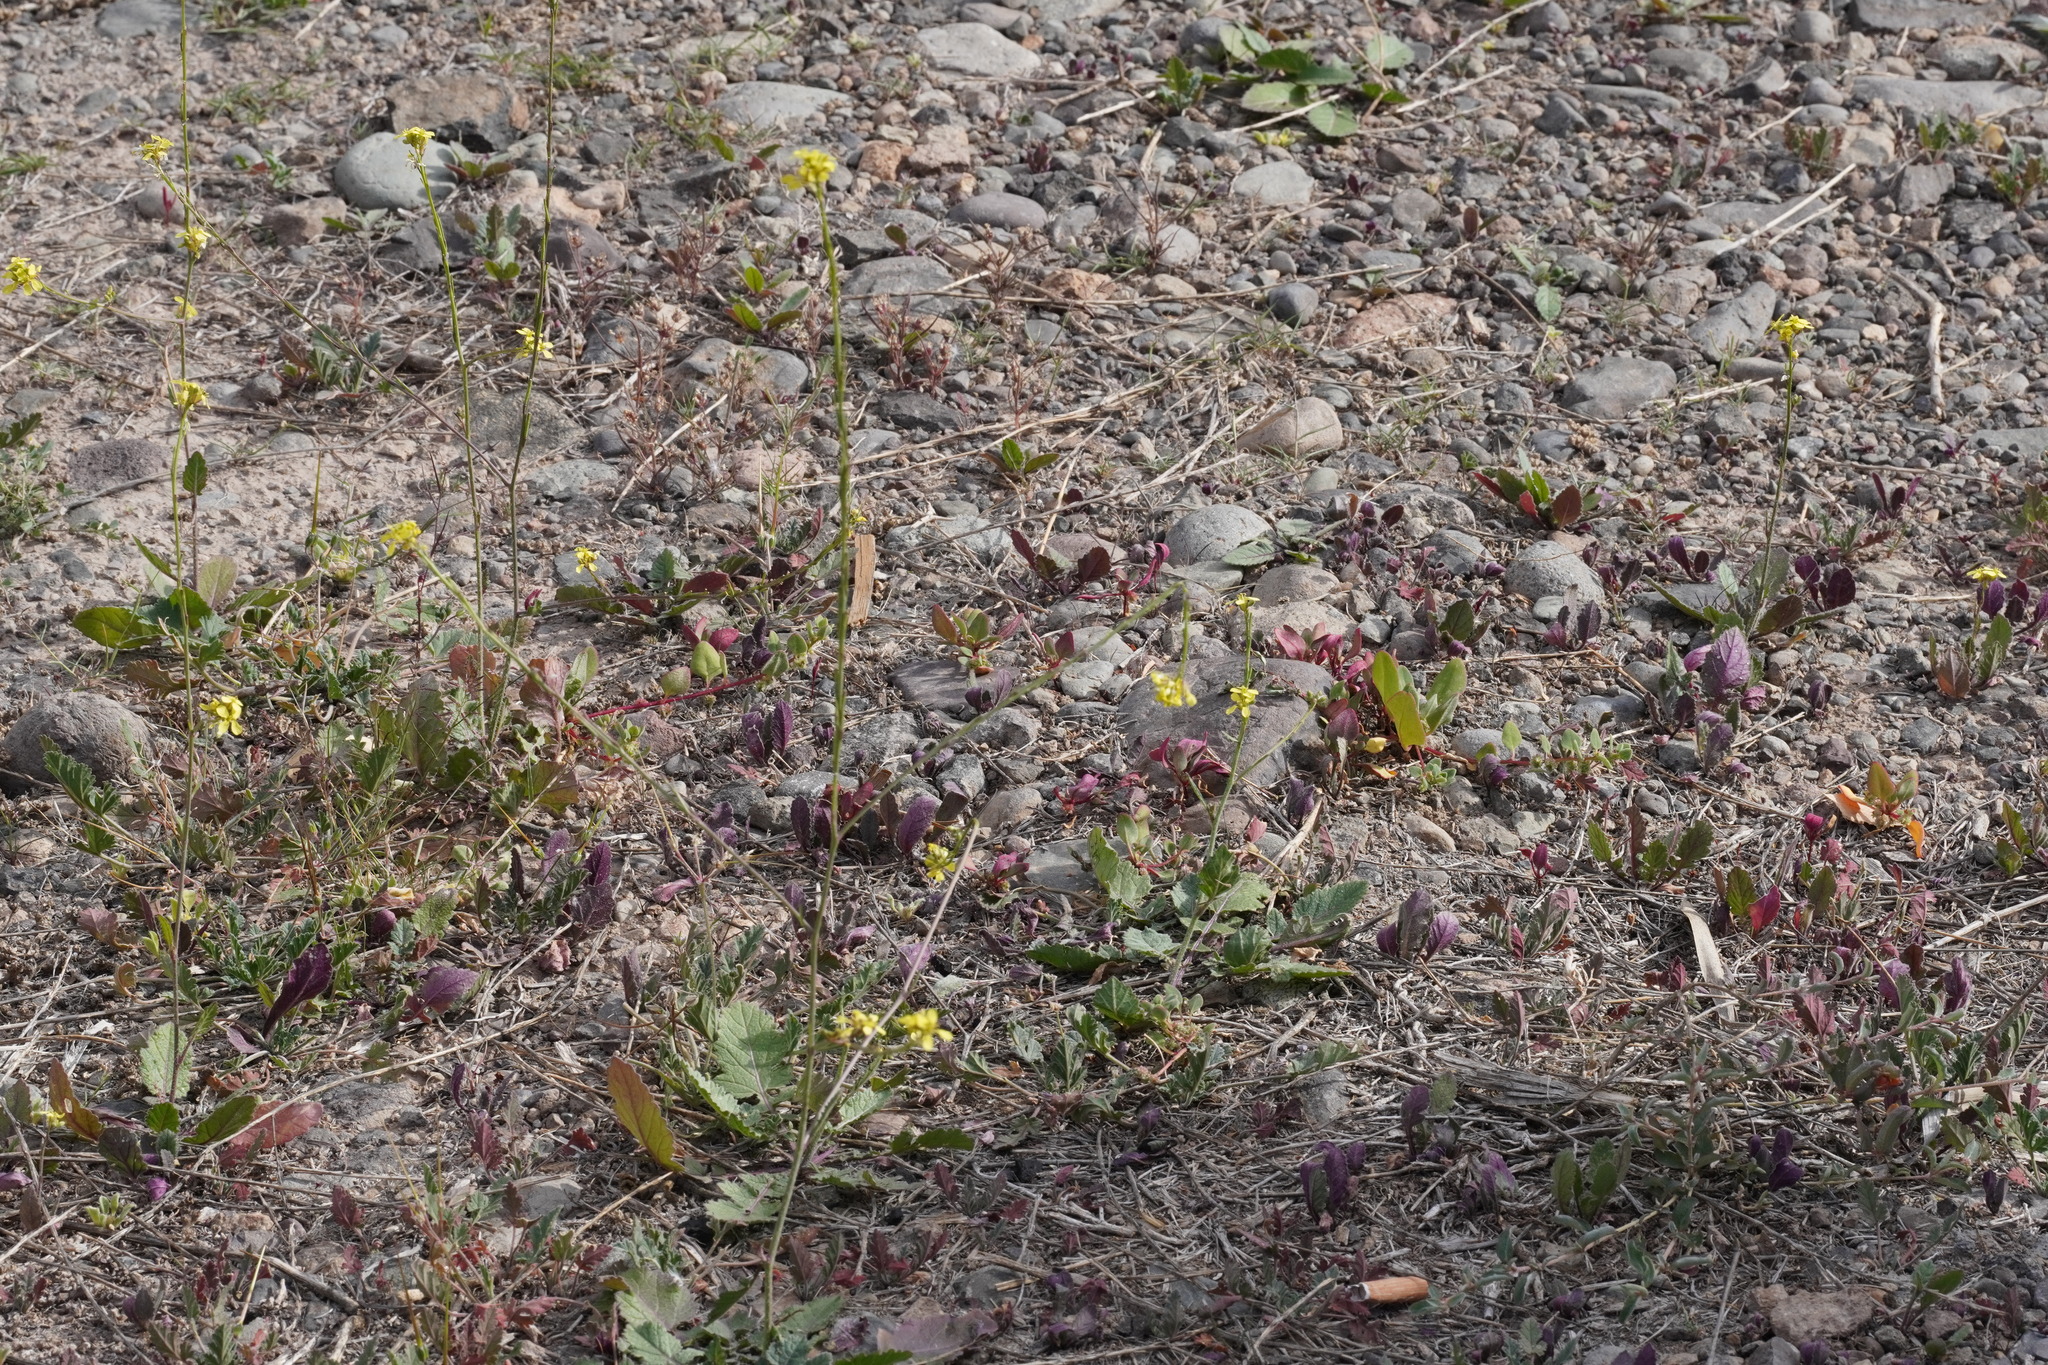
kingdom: Plantae
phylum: Tracheophyta
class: Magnoliopsida
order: Brassicales
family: Brassicaceae
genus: Hirschfeldia
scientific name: Hirschfeldia incana
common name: Hoary mustard
